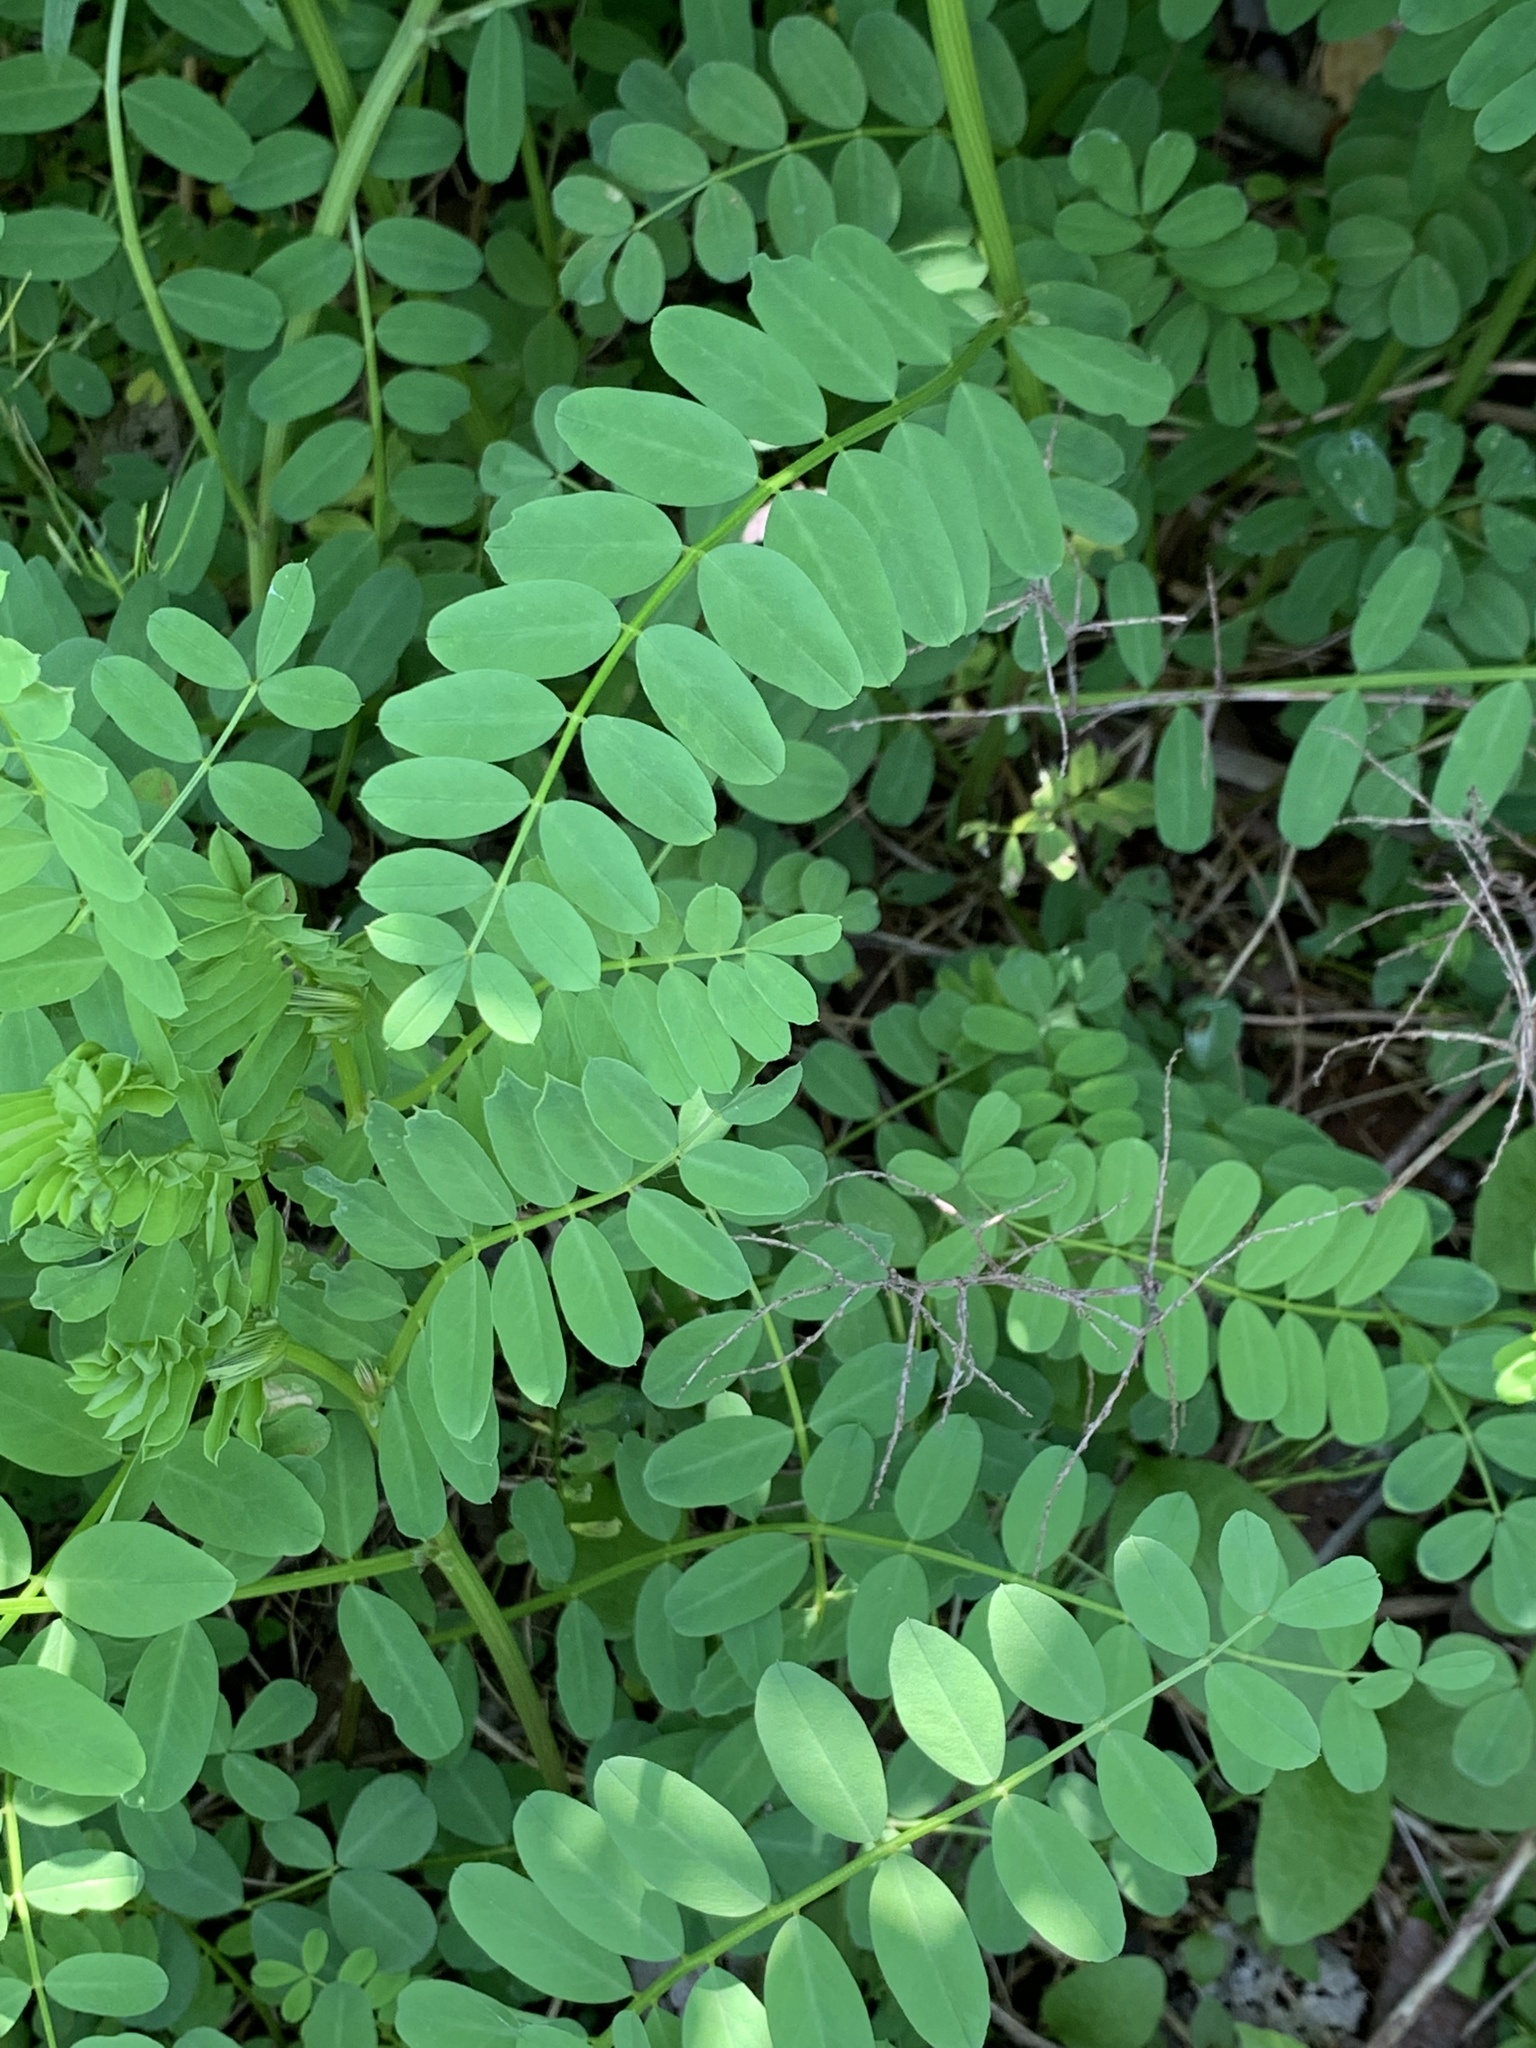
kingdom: Plantae
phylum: Tracheophyta
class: Magnoliopsida
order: Fabales
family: Fabaceae
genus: Coronilla
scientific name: Coronilla varia
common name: Crownvetch
